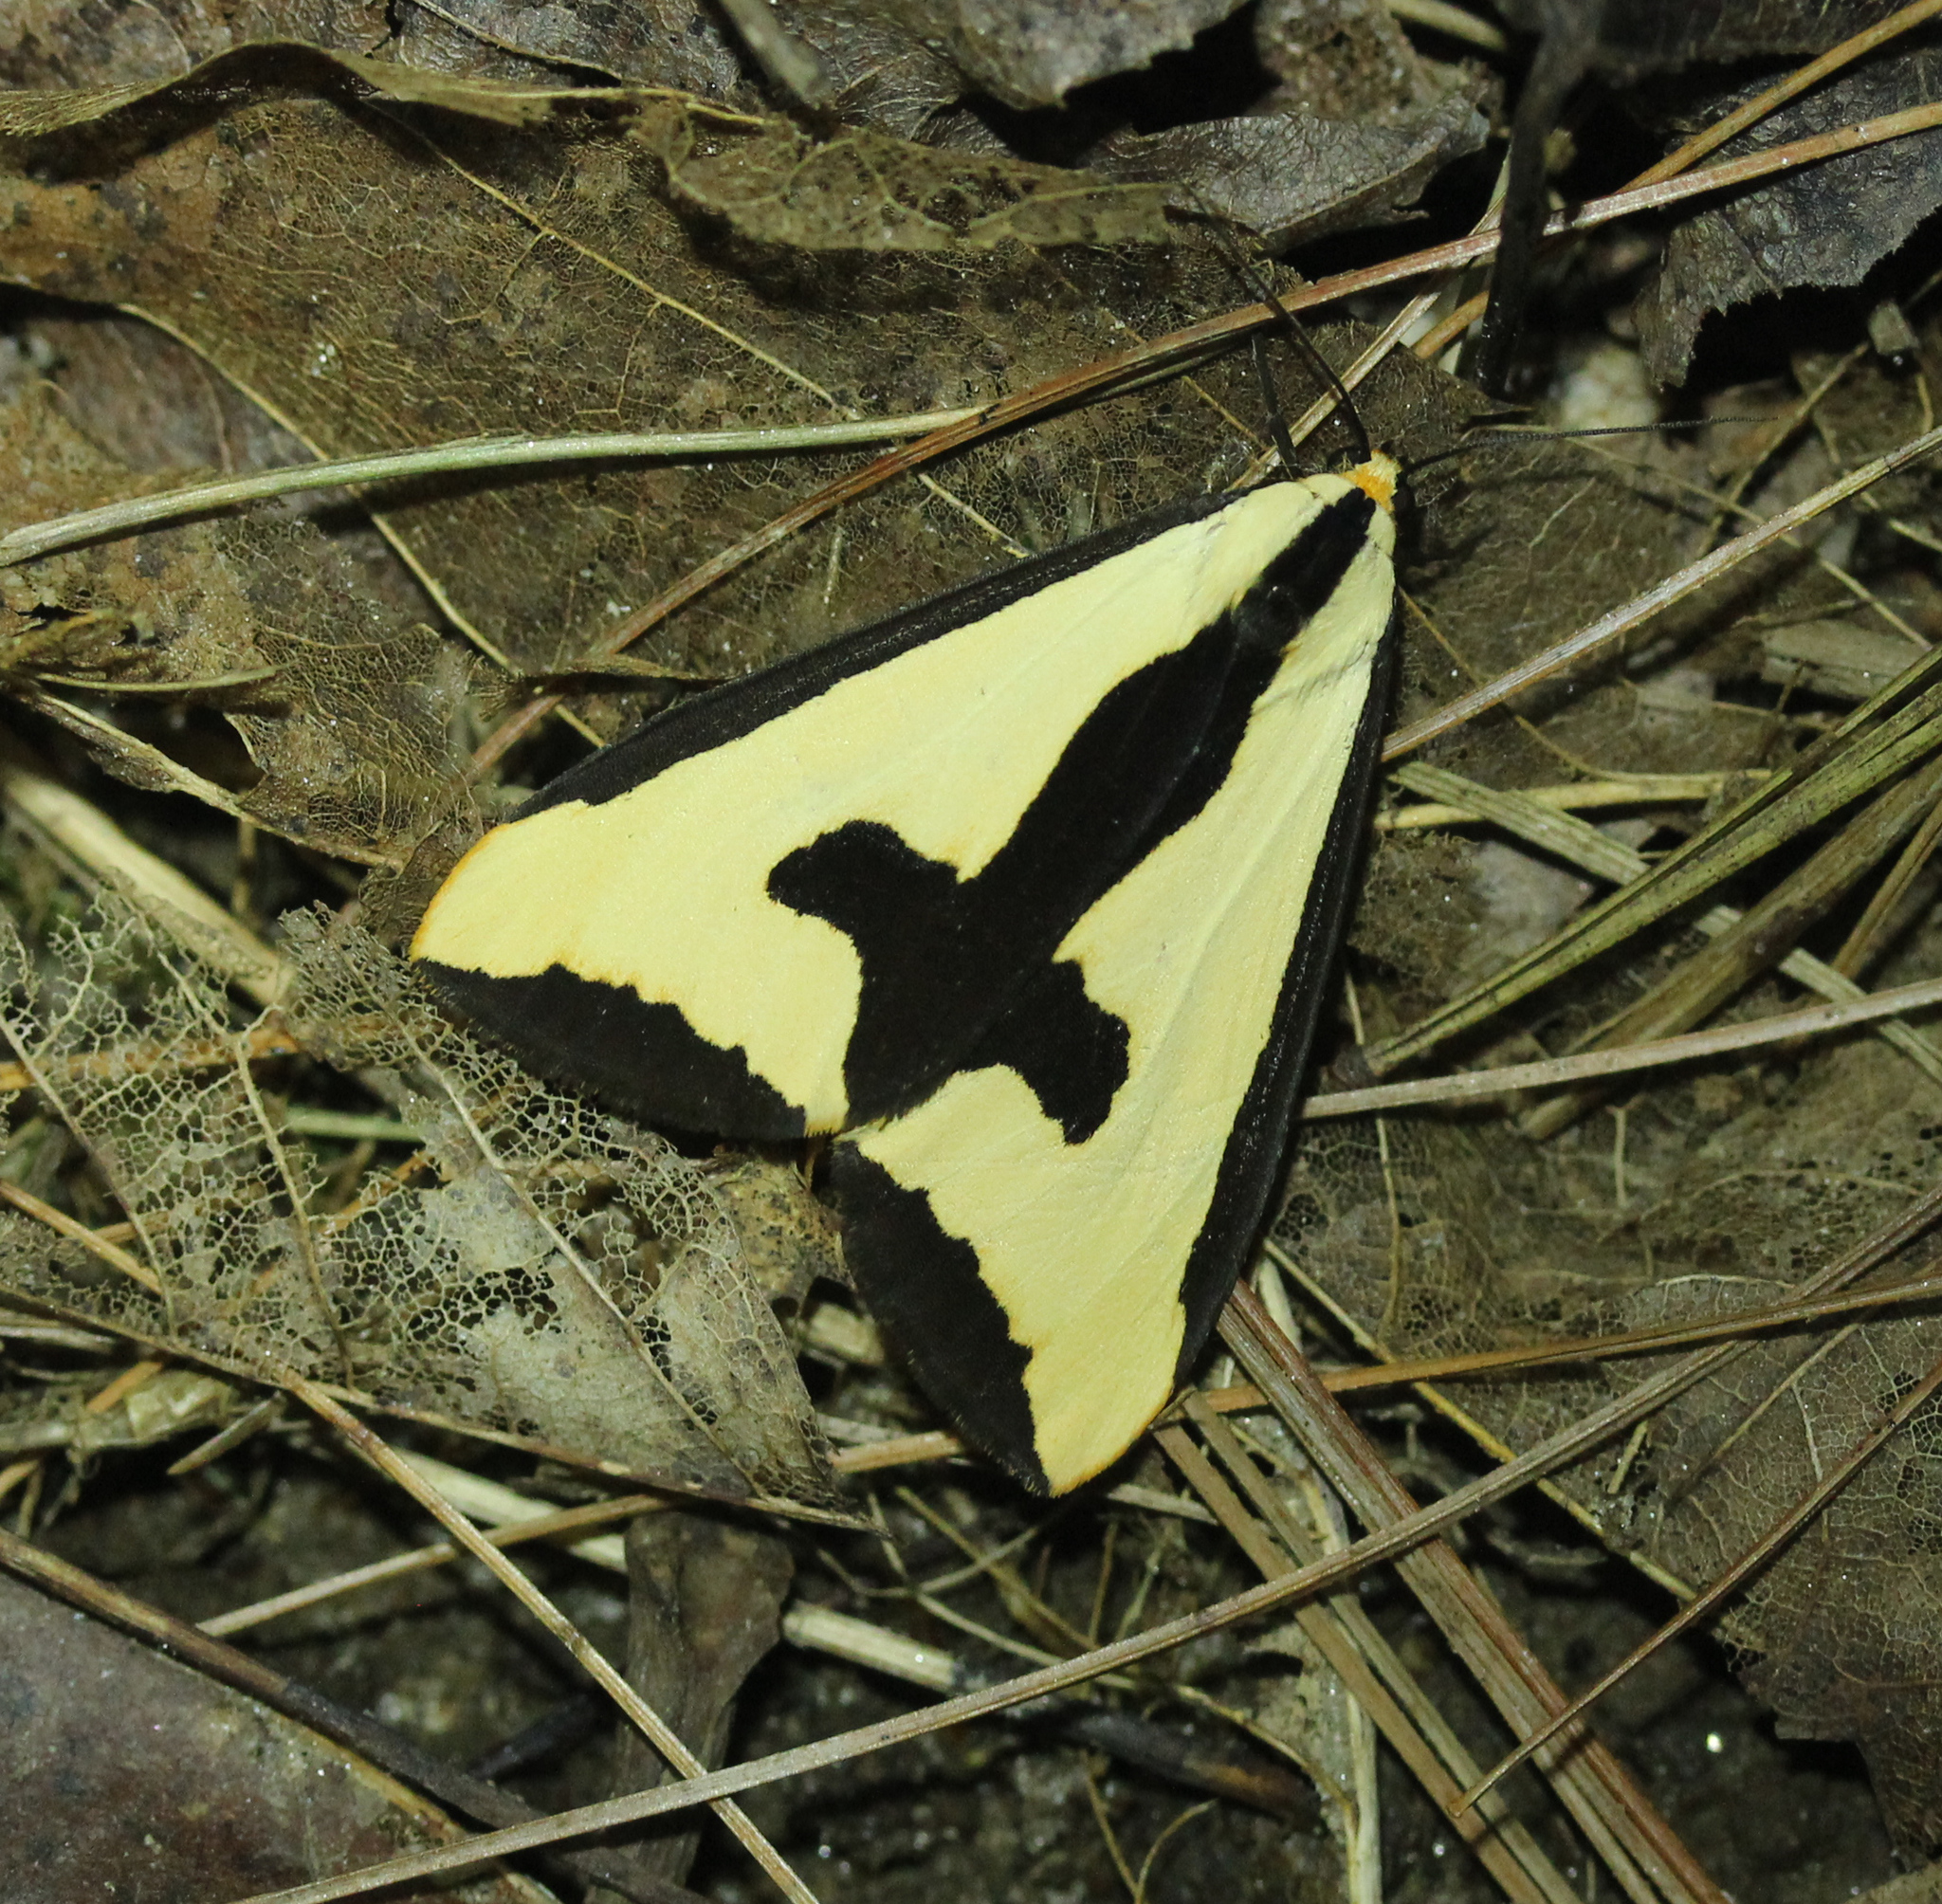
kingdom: Animalia
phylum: Arthropoda
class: Insecta
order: Lepidoptera
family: Erebidae
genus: Haploa
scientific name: Haploa clymene
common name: Clymene moth
